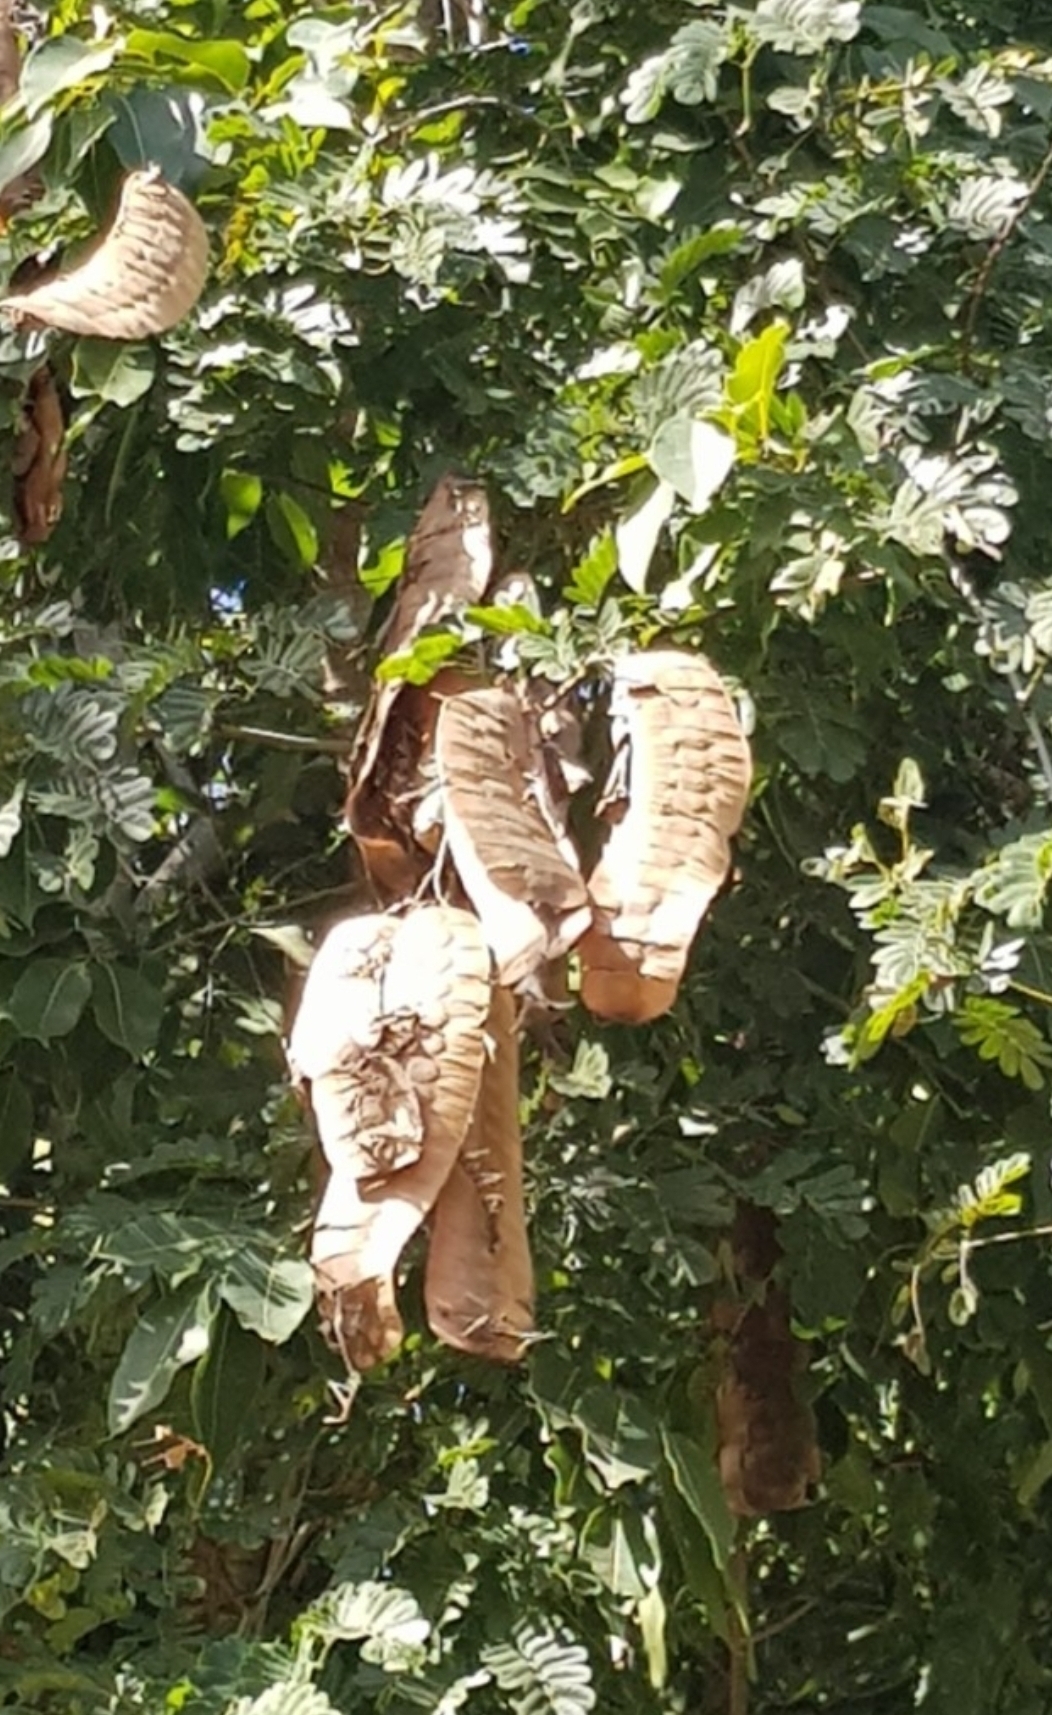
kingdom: Plantae
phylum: Tracheophyta
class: Magnoliopsida
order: Fabales
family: Fabaceae
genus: Entada
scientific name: Entada polystachya
